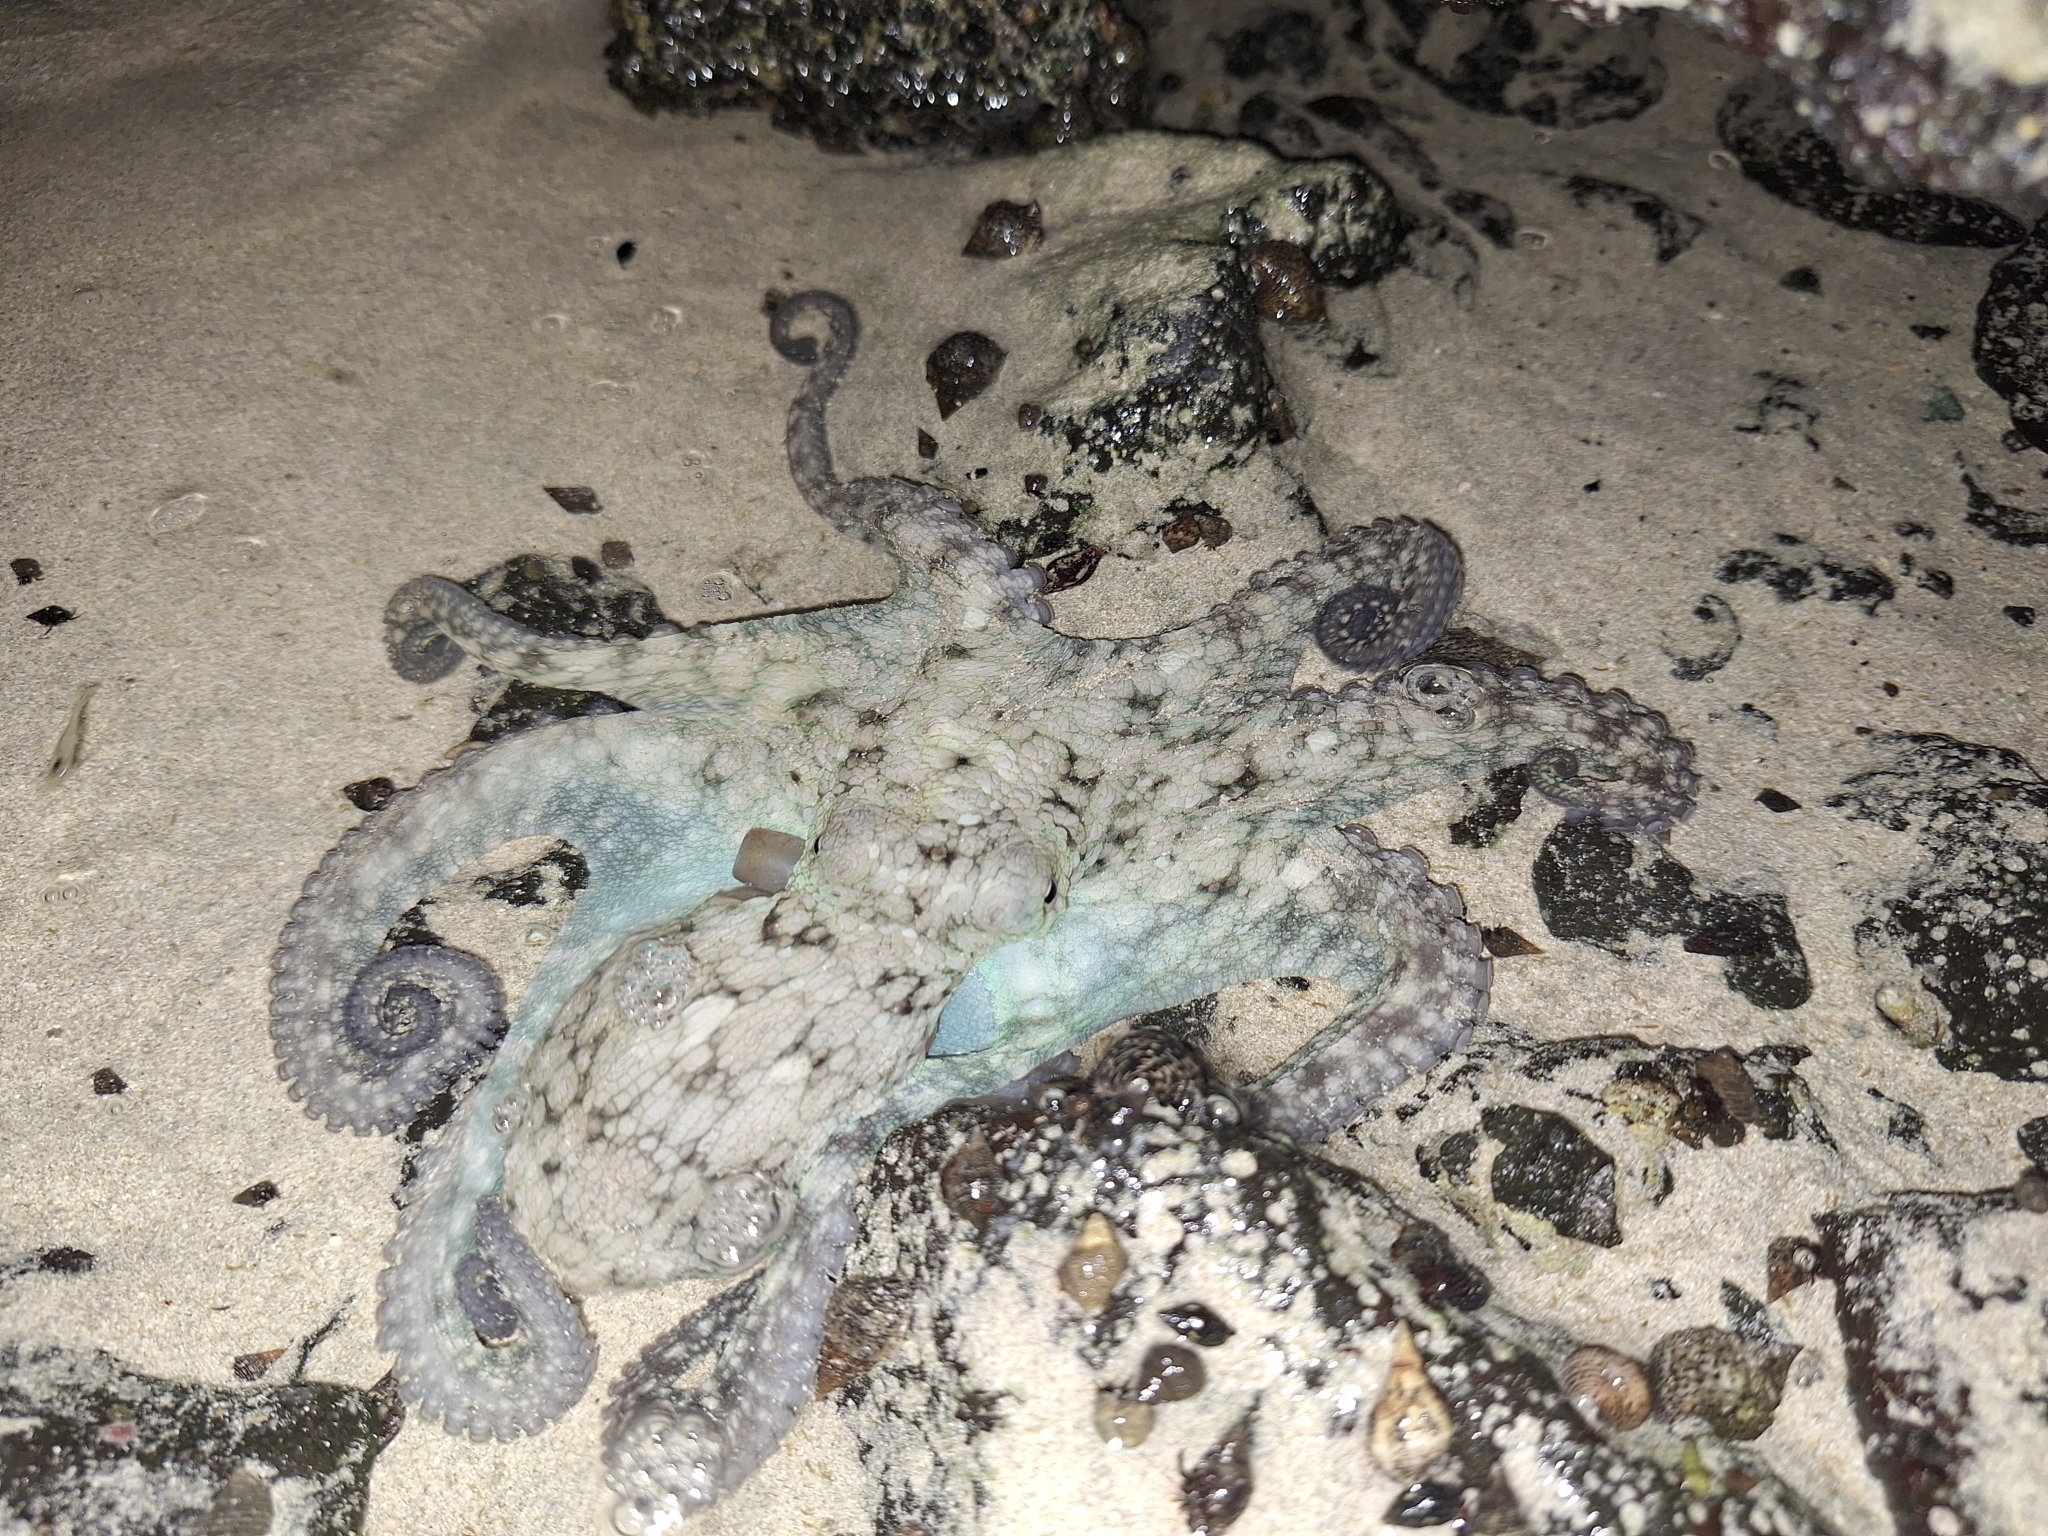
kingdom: Animalia
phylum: Mollusca
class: Cephalopoda
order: Octopoda
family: Octopodidae
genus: Octopus
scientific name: Octopus oculifer
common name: Reef octopus
